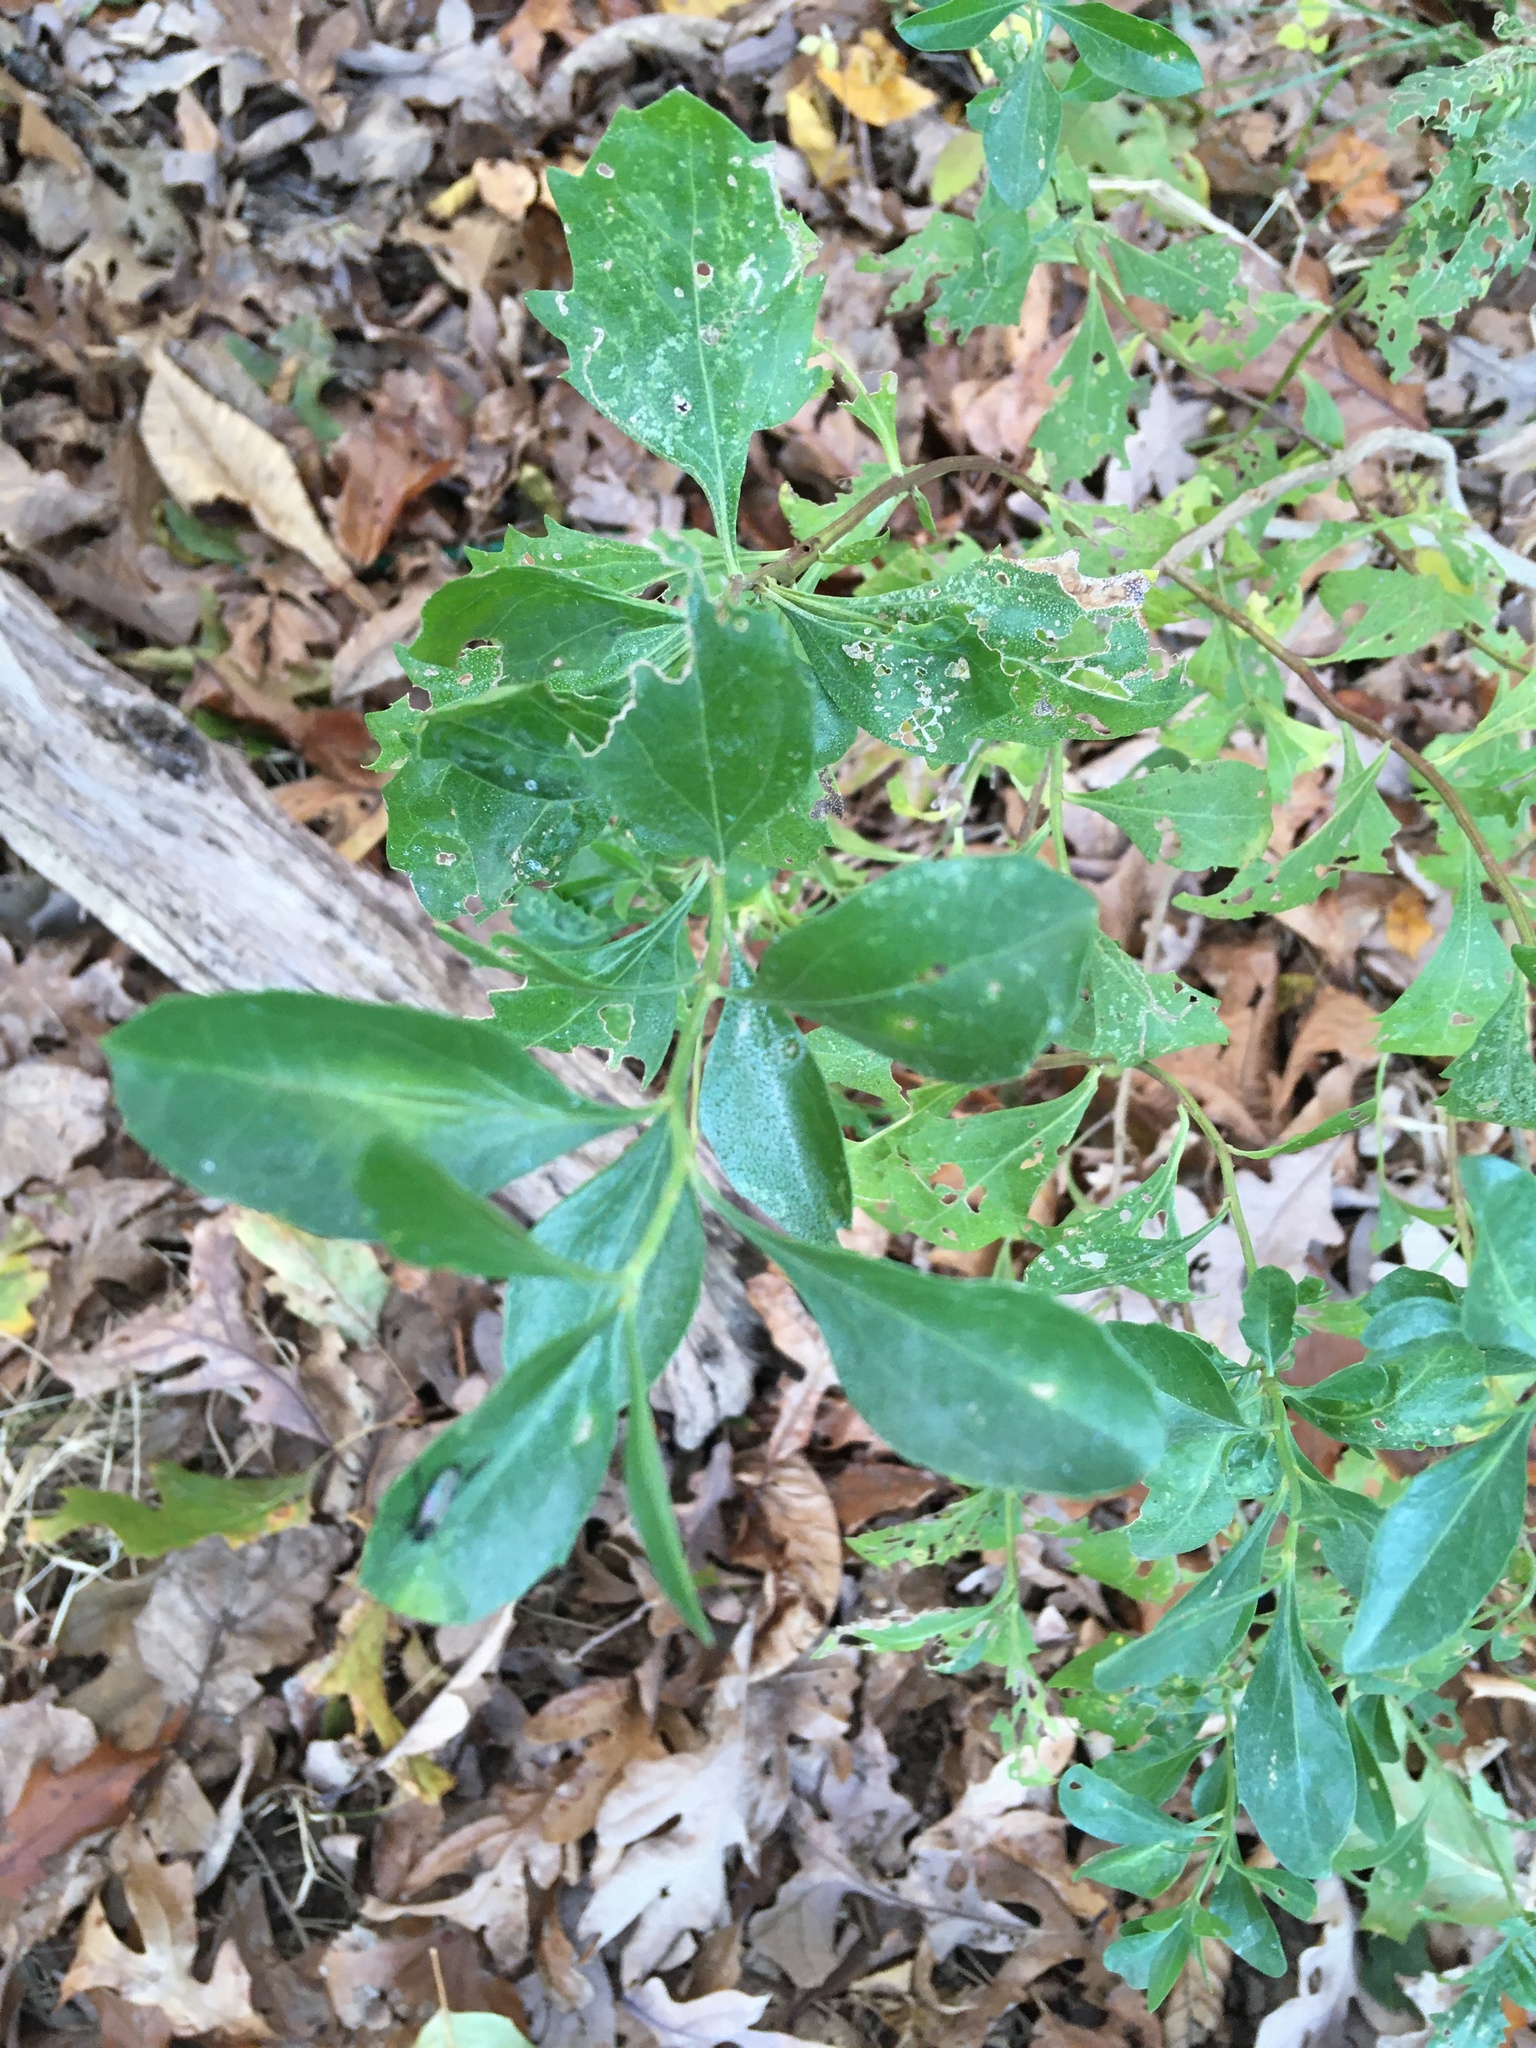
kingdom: Plantae
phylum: Tracheophyta
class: Magnoliopsida
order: Asterales
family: Asteraceae
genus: Baccharis
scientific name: Baccharis halimifolia
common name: Eastern baccharis
